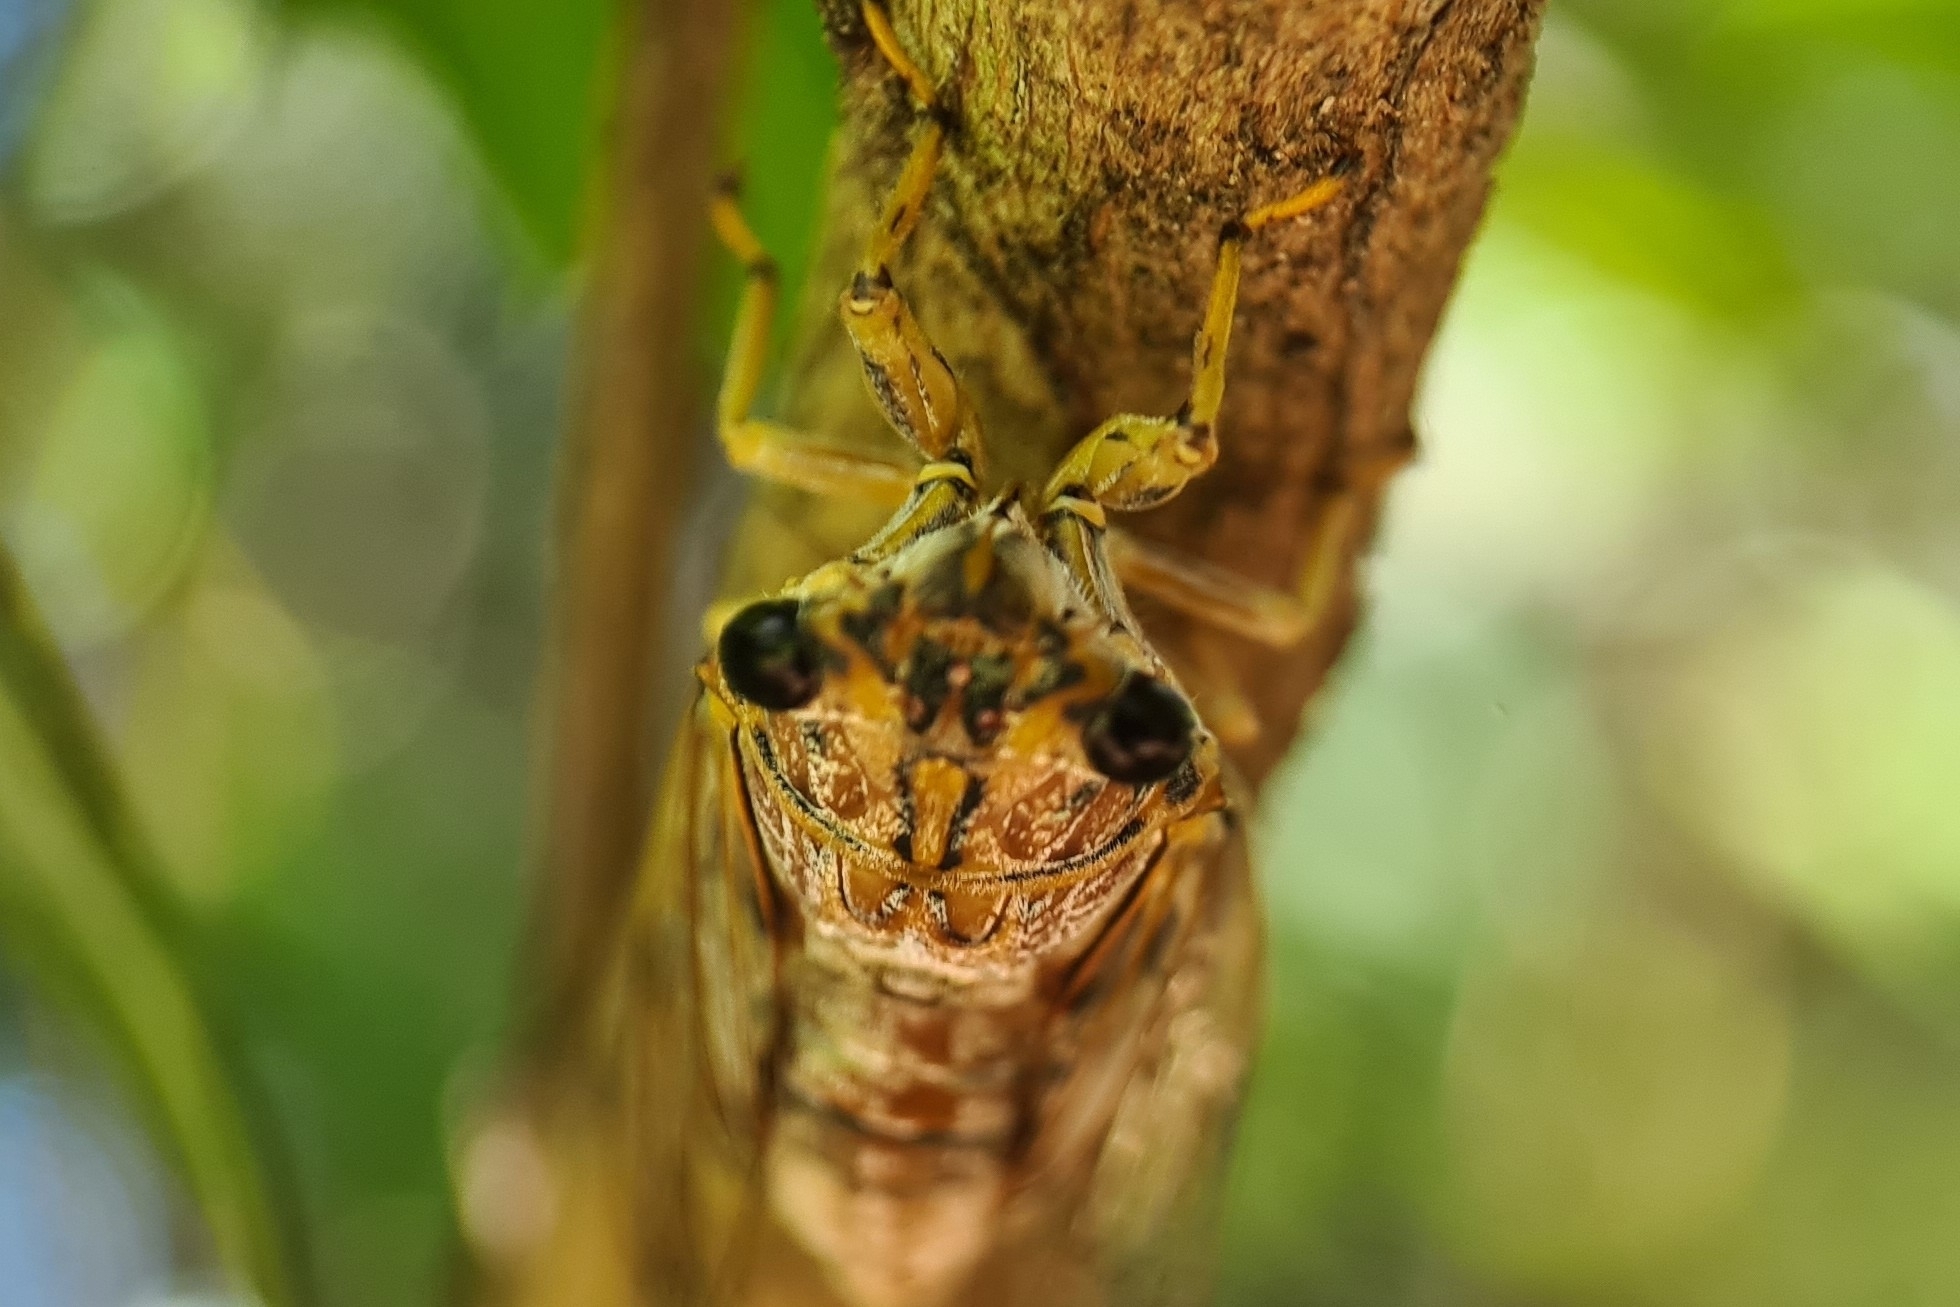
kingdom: Animalia
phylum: Arthropoda
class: Insecta
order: Hemiptera
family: Cicadidae
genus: Tamasa
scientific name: Tamasa tristigma
